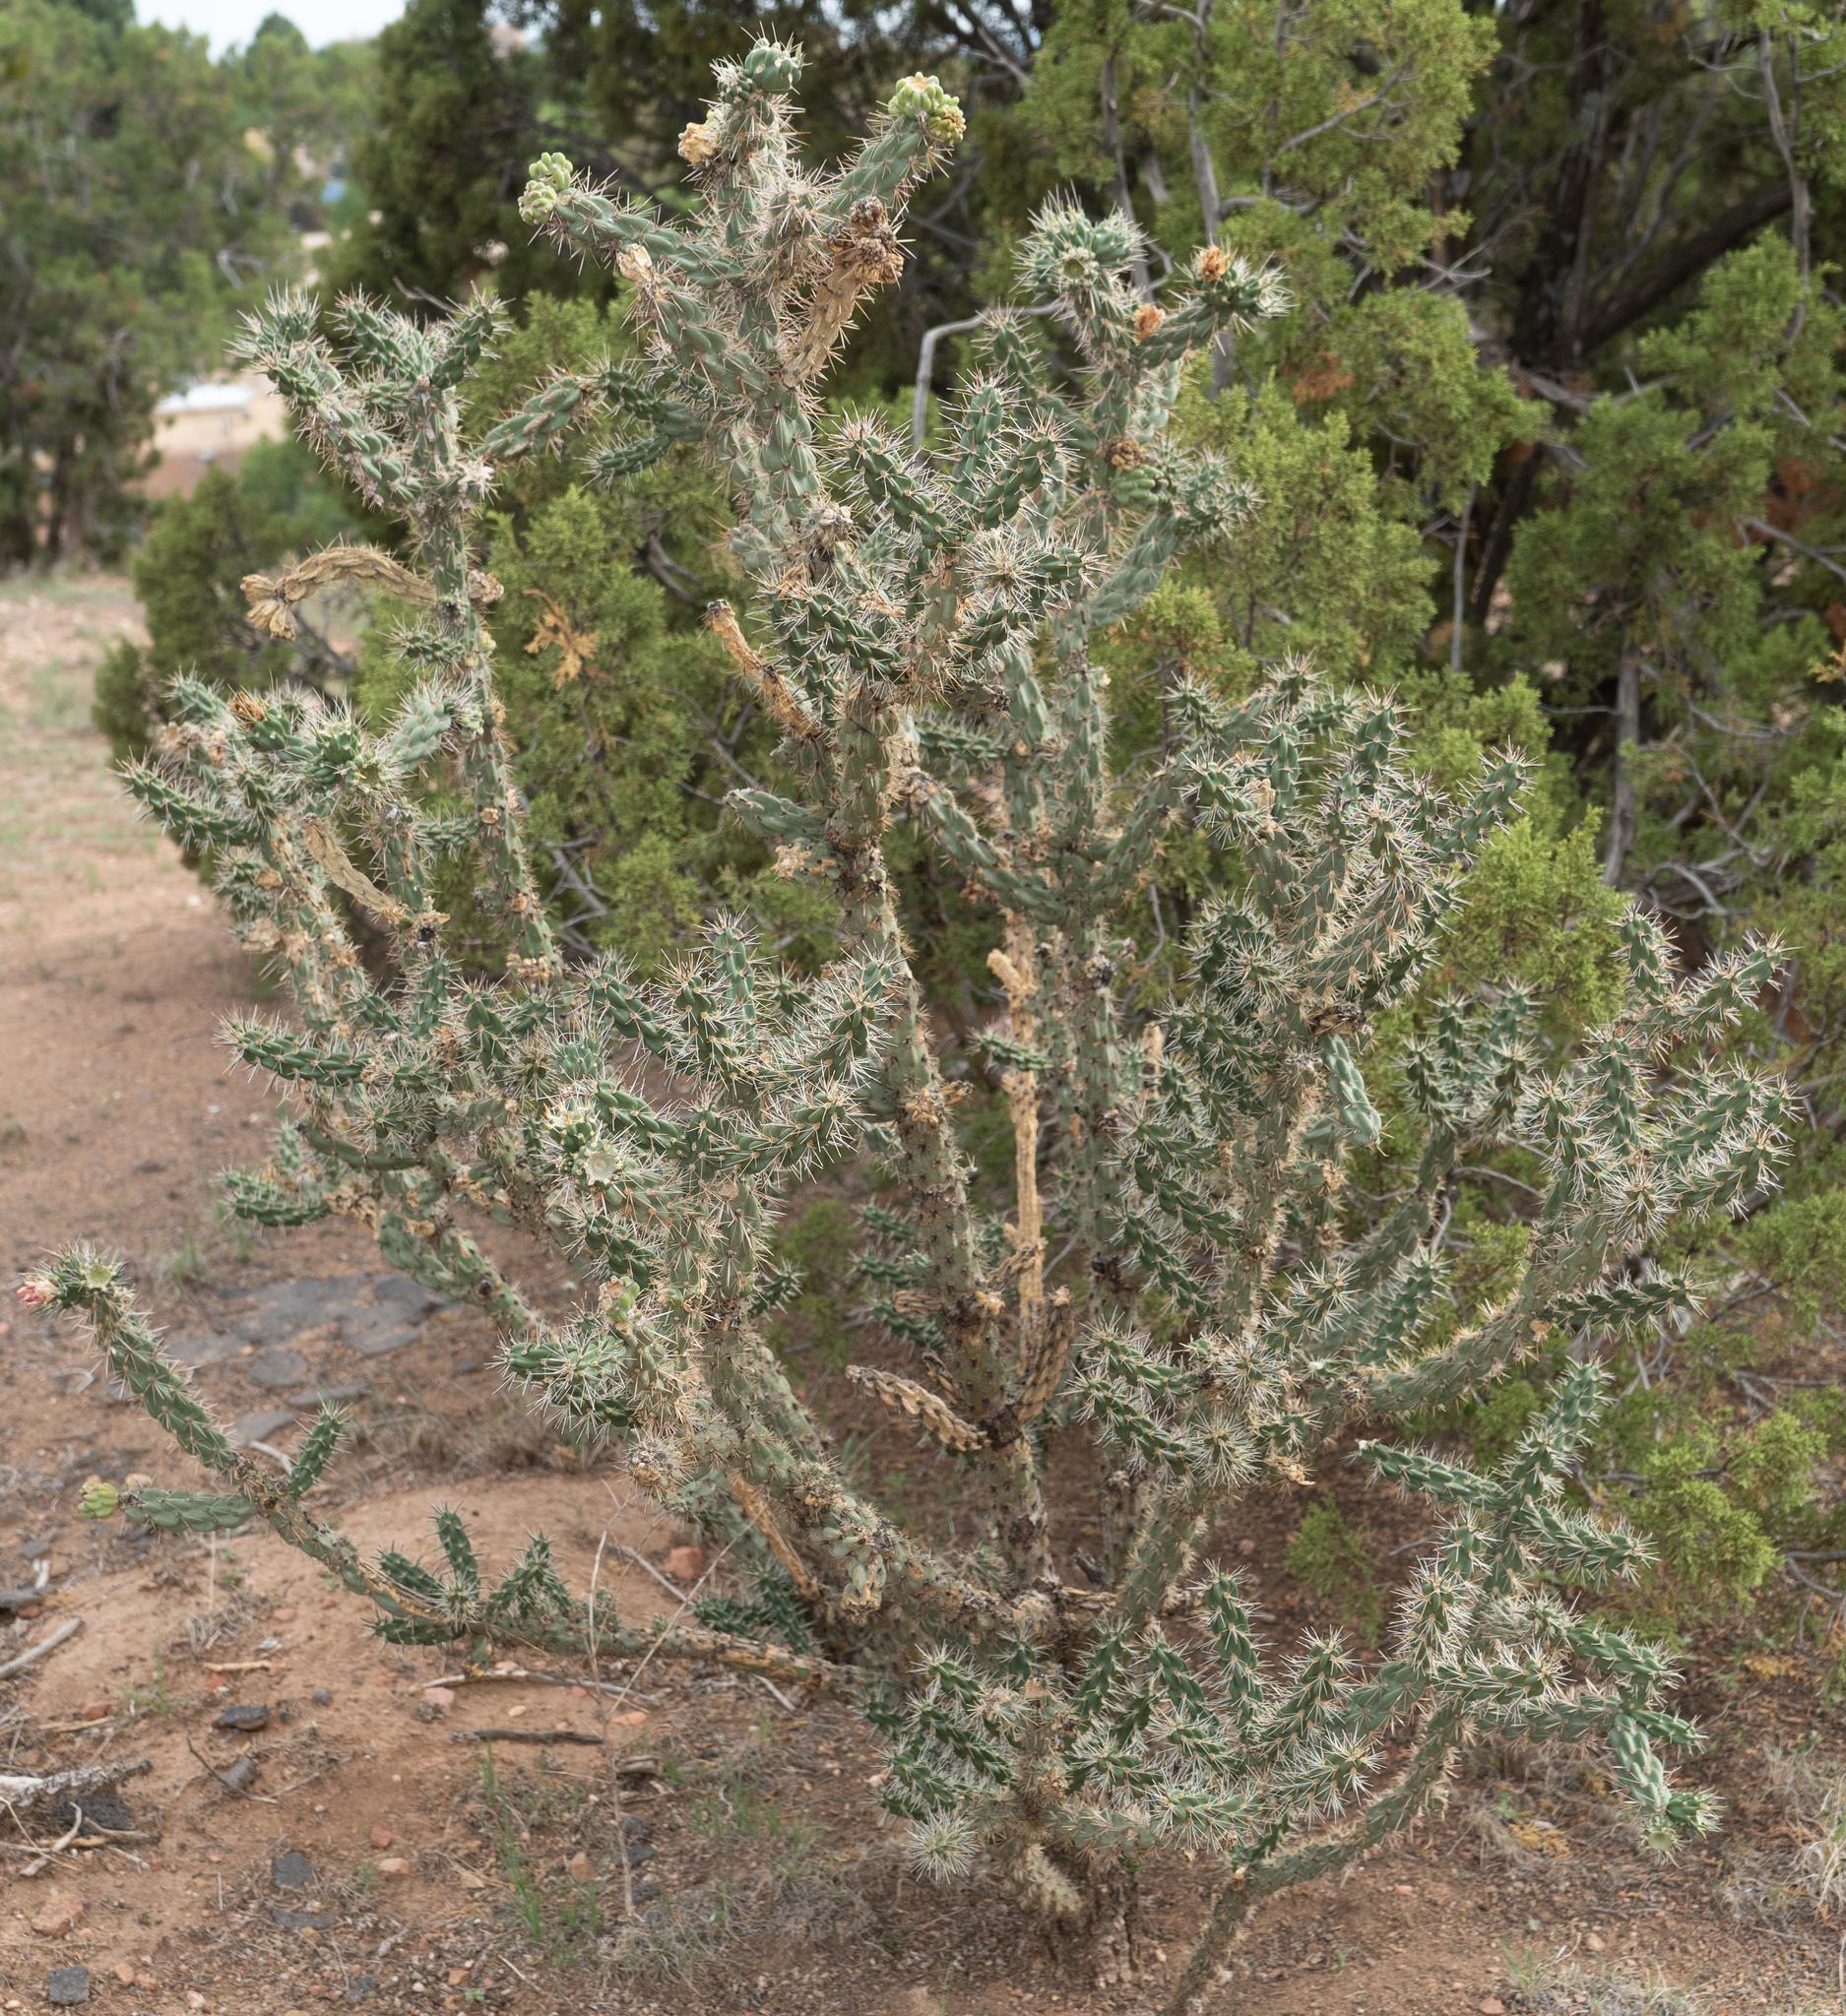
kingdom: Plantae
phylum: Tracheophyta
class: Magnoliopsida
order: Caryophyllales
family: Cactaceae
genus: Cylindropuntia
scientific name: Cylindropuntia imbricata
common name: Candelabrum cactus
